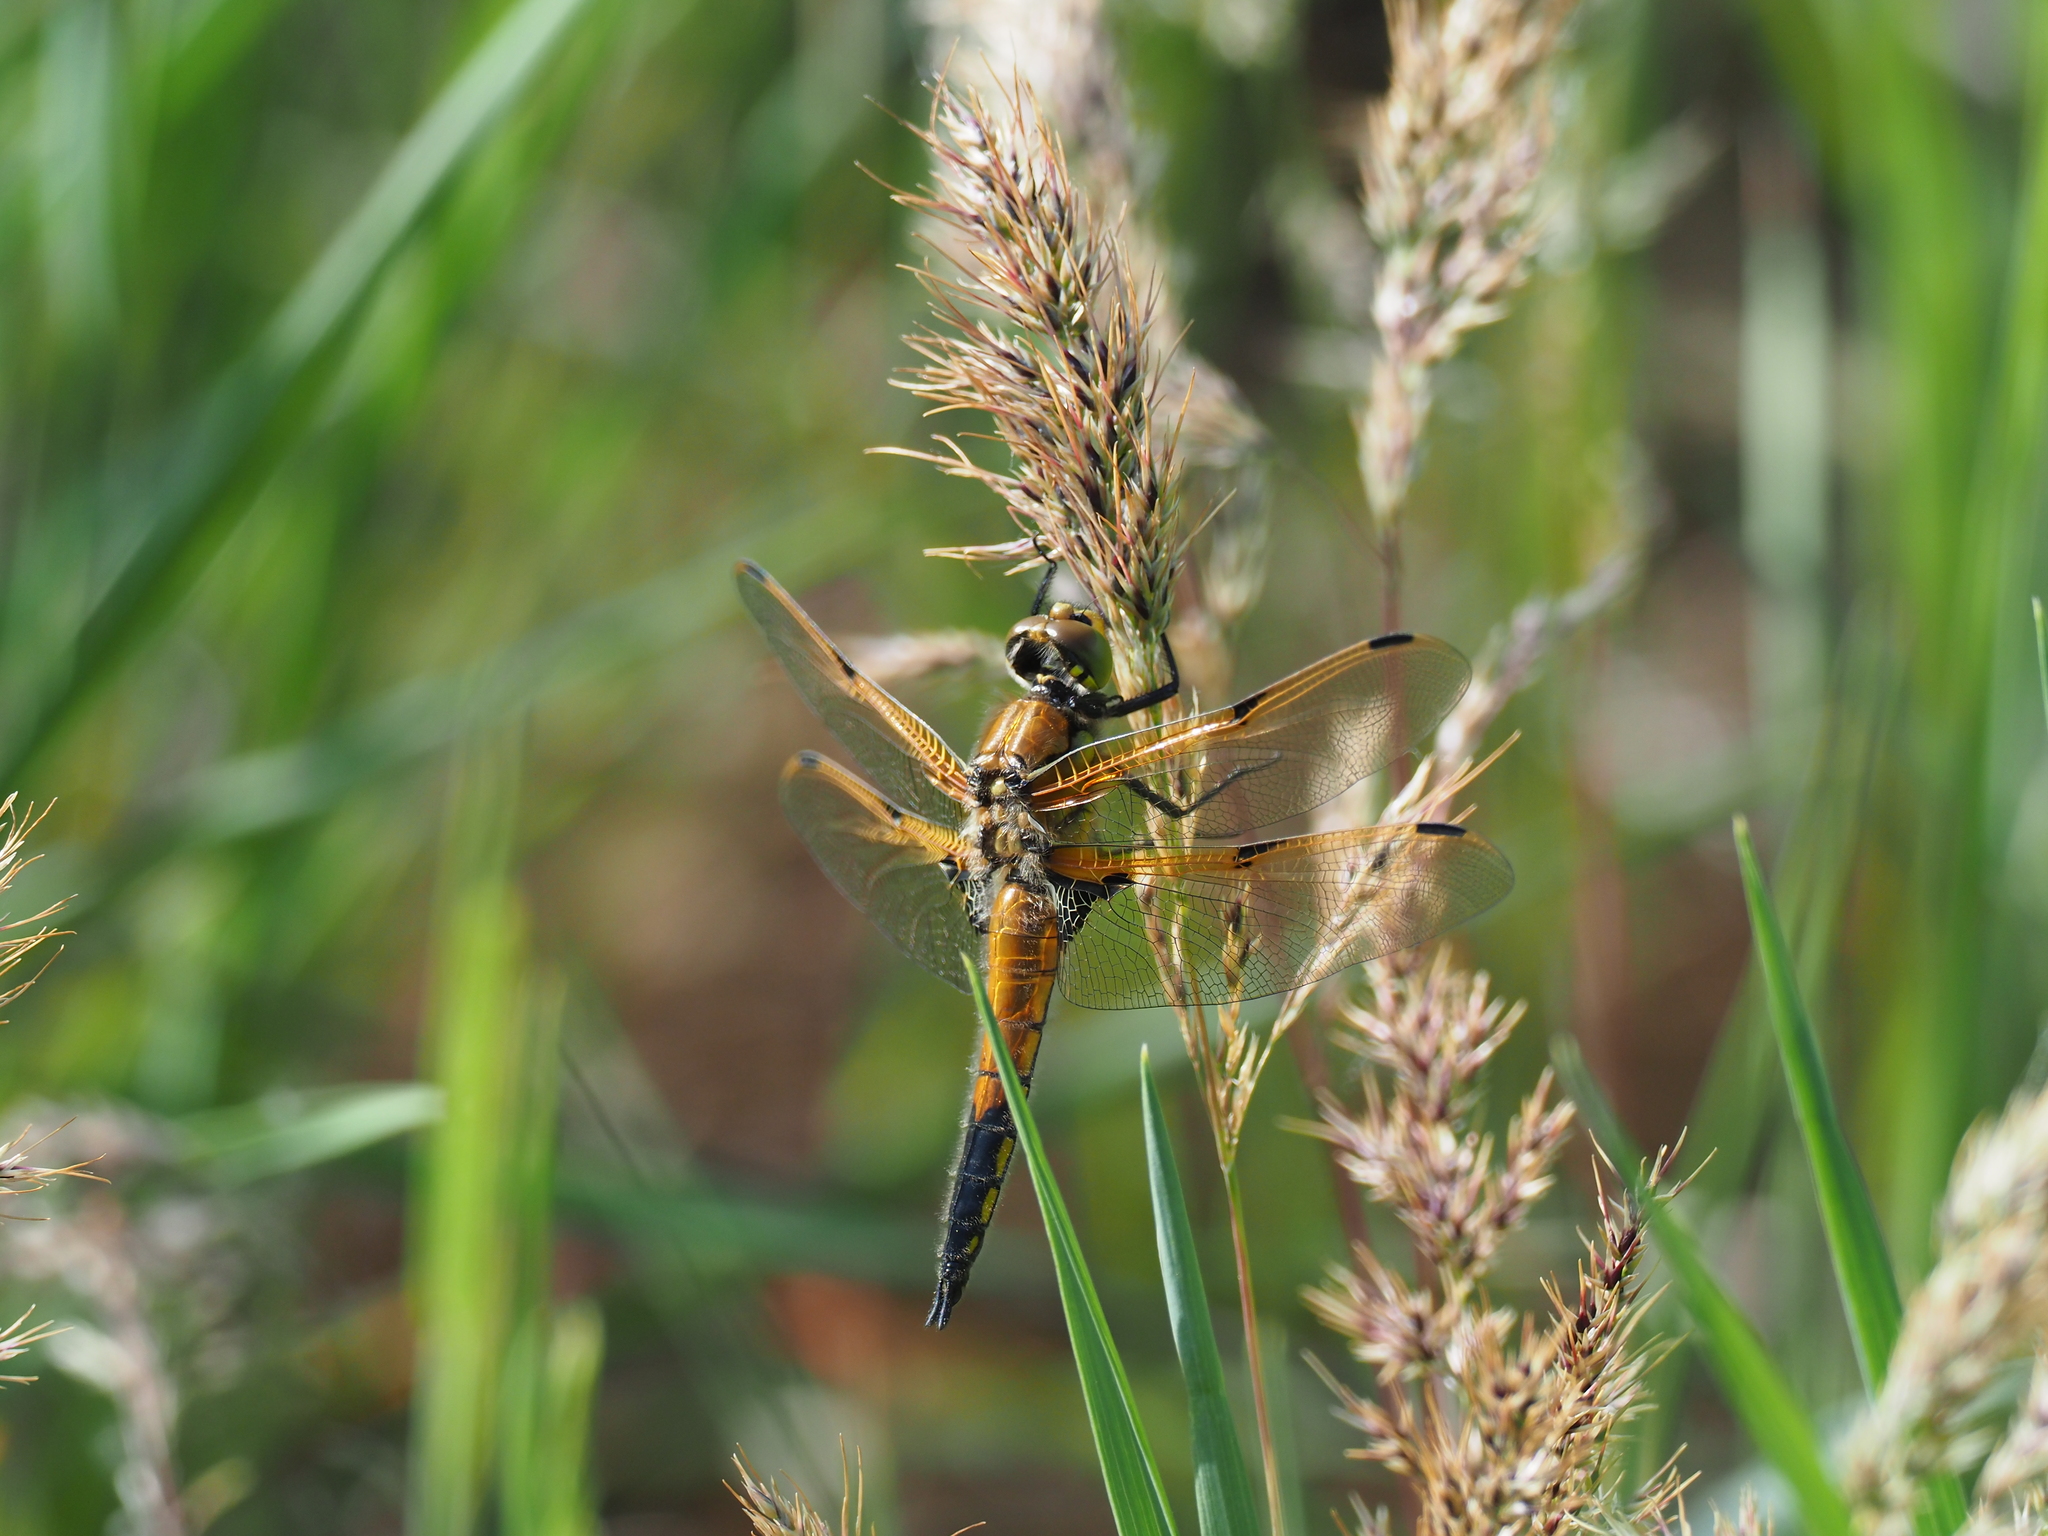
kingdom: Animalia
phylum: Arthropoda
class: Insecta
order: Odonata
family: Libellulidae
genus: Libellula
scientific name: Libellula quadrimaculata
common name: Four-spotted chaser
